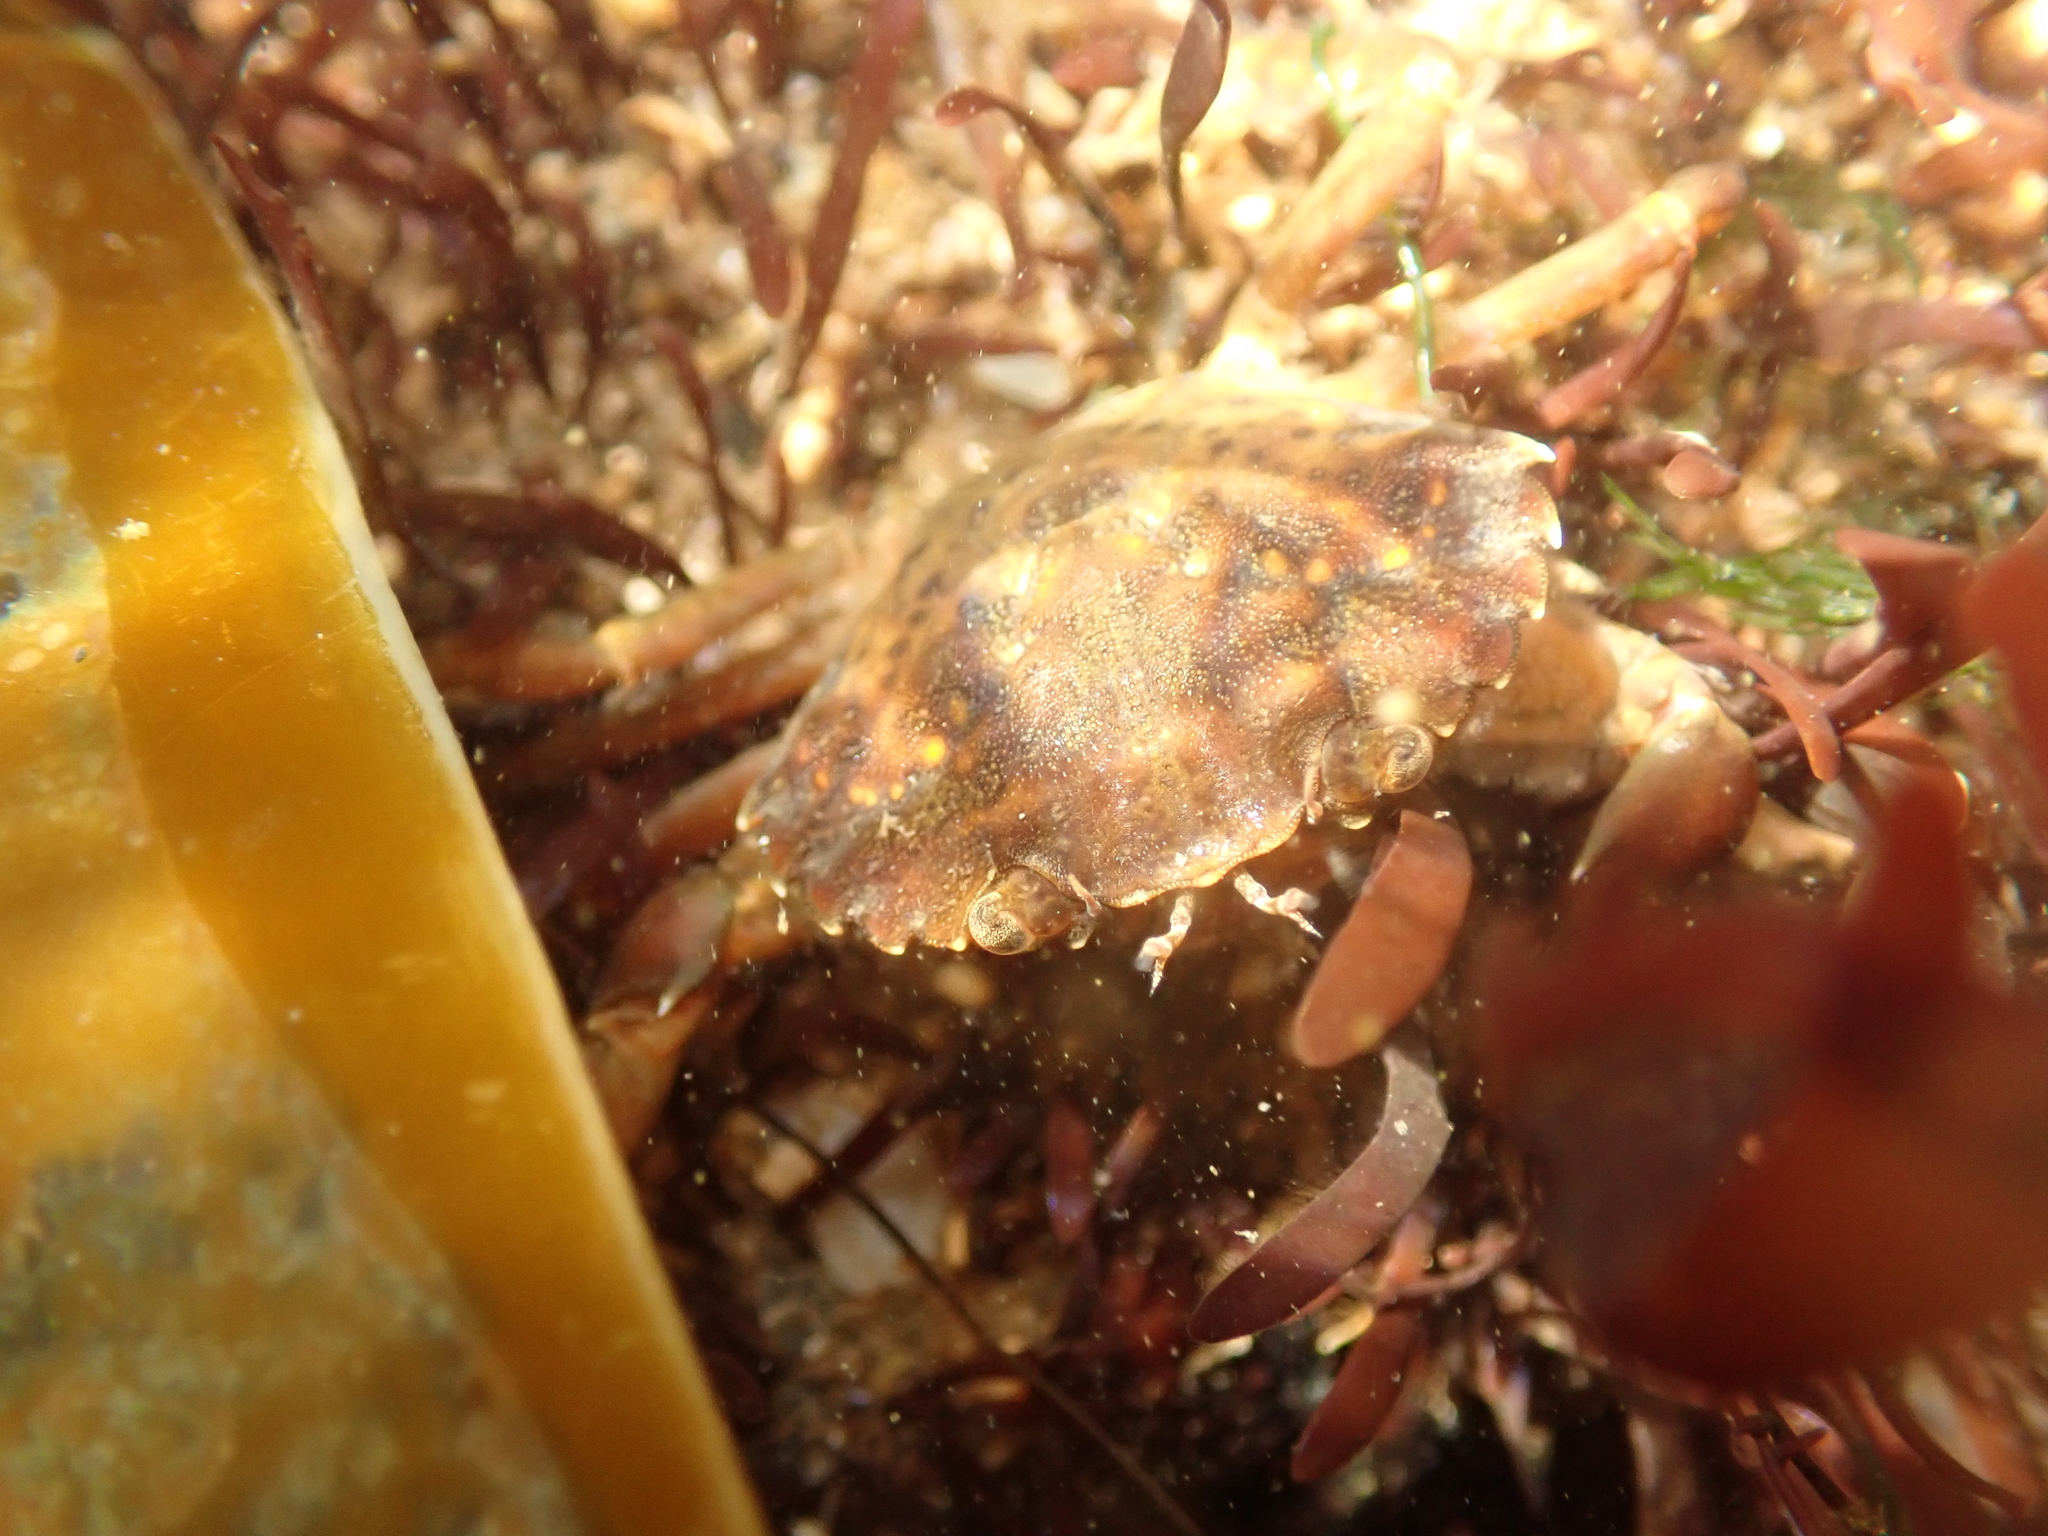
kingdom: Animalia
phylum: Arthropoda
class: Malacostraca
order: Decapoda
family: Carcinidae
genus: Carcinus
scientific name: Carcinus maenas
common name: European green crab
